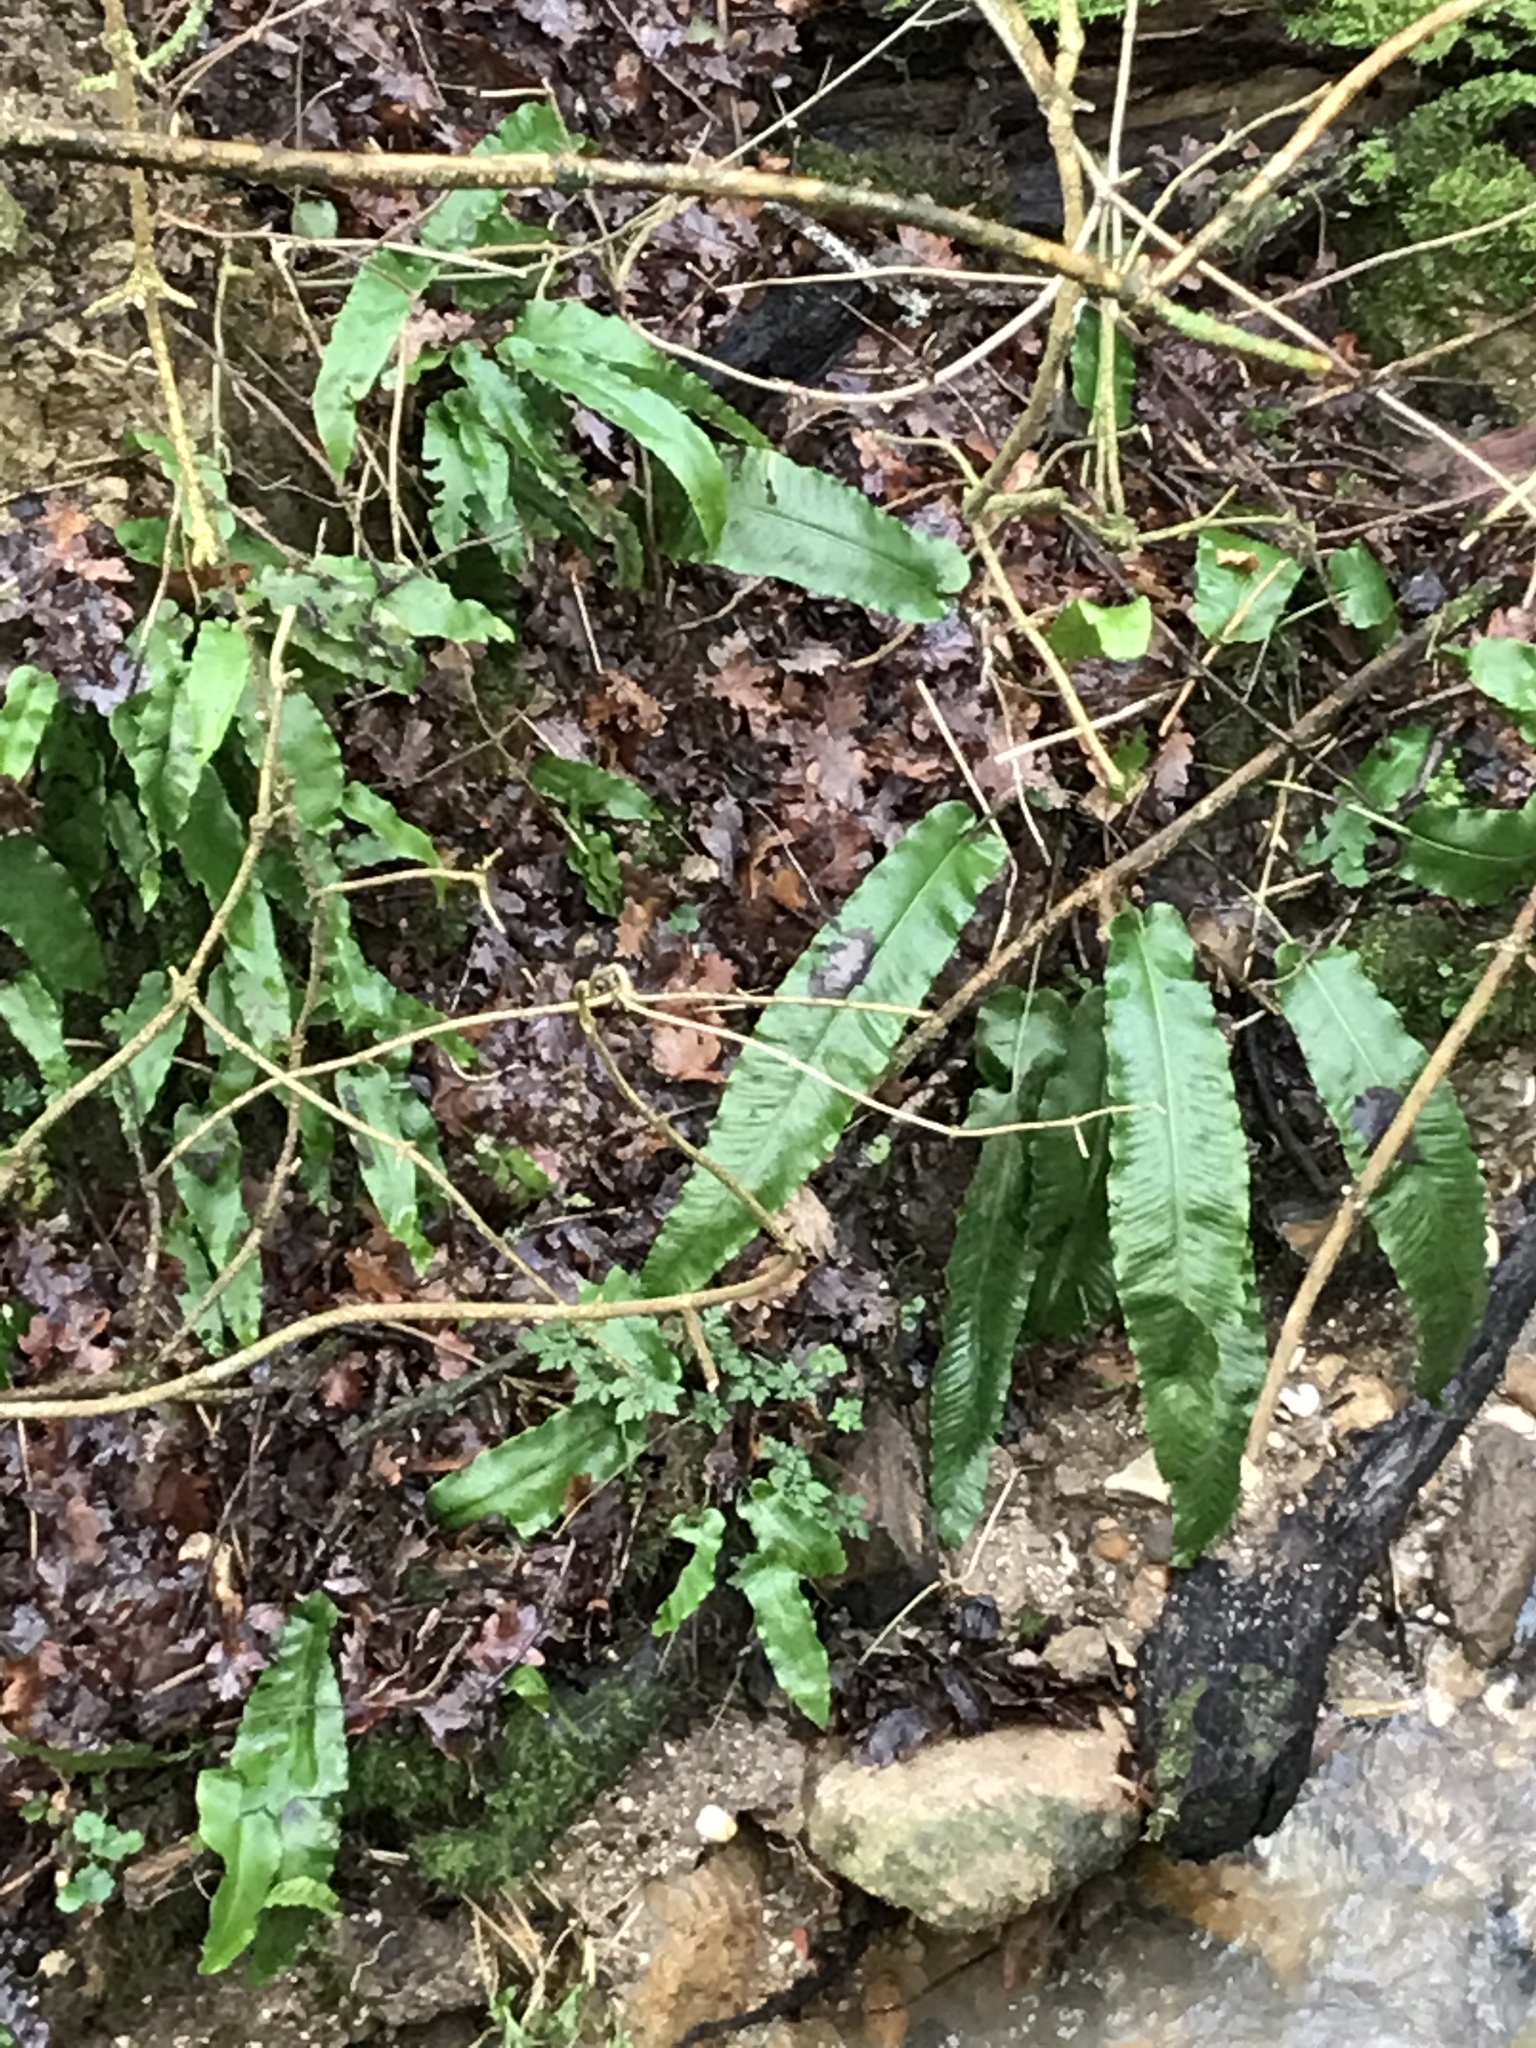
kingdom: Plantae
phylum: Tracheophyta
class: Polypodiopsida
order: Polypodiales
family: Aspleniaceae
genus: Asplenium
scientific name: Asplenium scolopendrium
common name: Hart's-tongue fern
